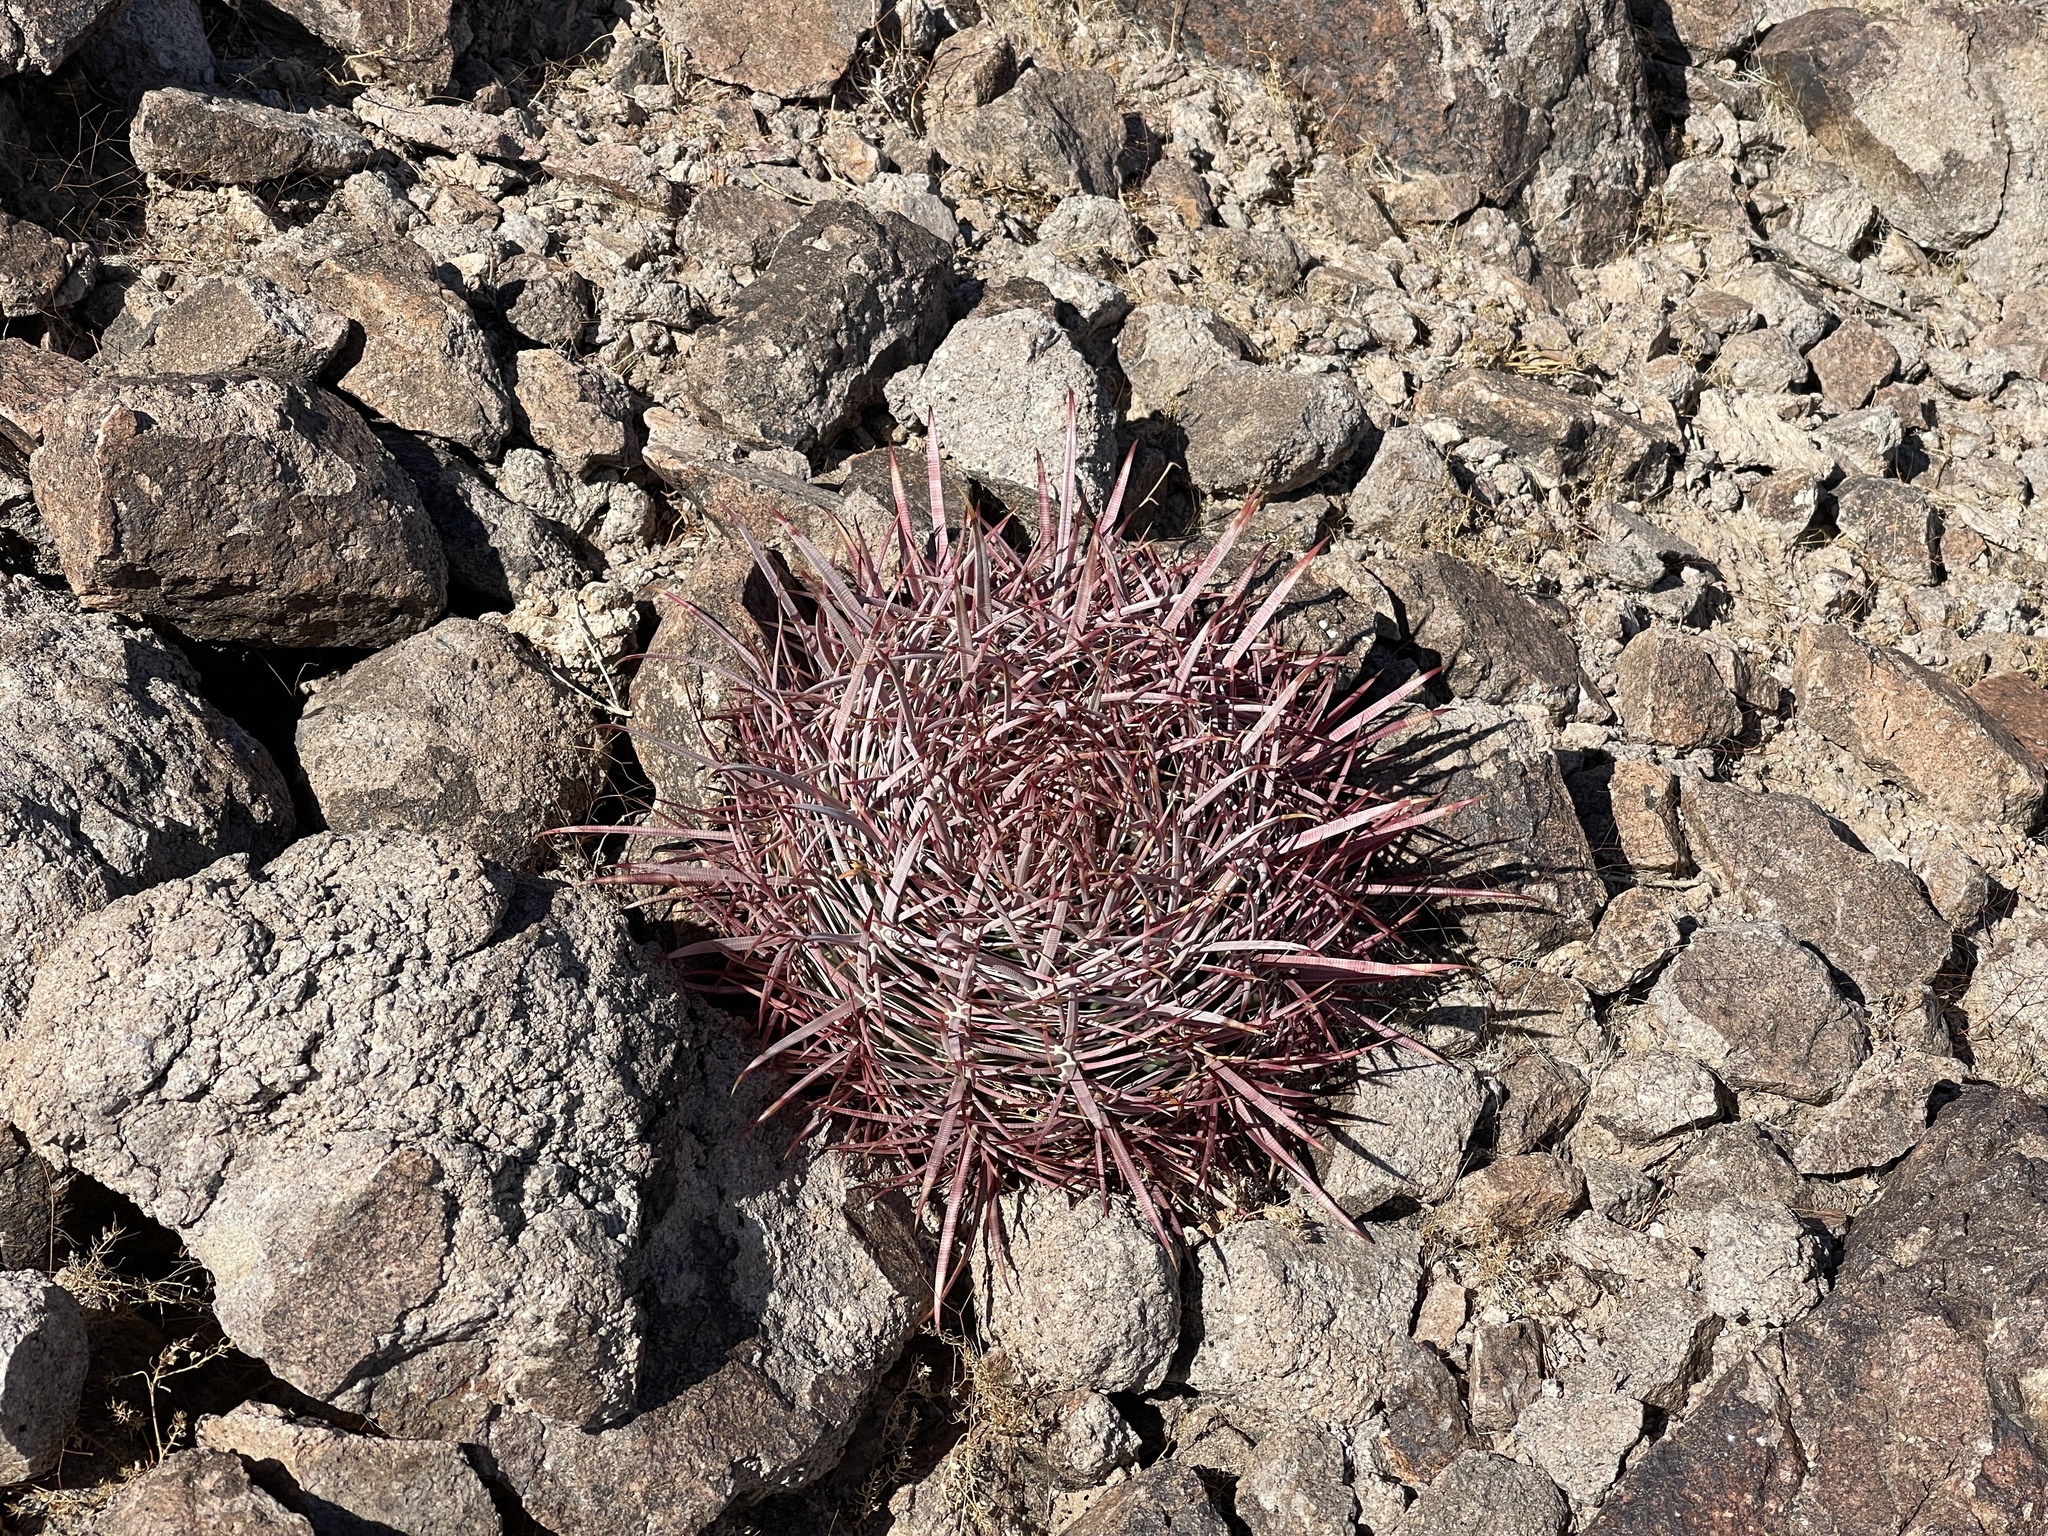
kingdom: Plantae
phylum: Tracheophyta
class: Magnoliopsida
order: Caryophyllales
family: Cactaceae
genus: Ferocactus
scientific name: Ferocactus cylindraceus
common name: California barrel cactus
